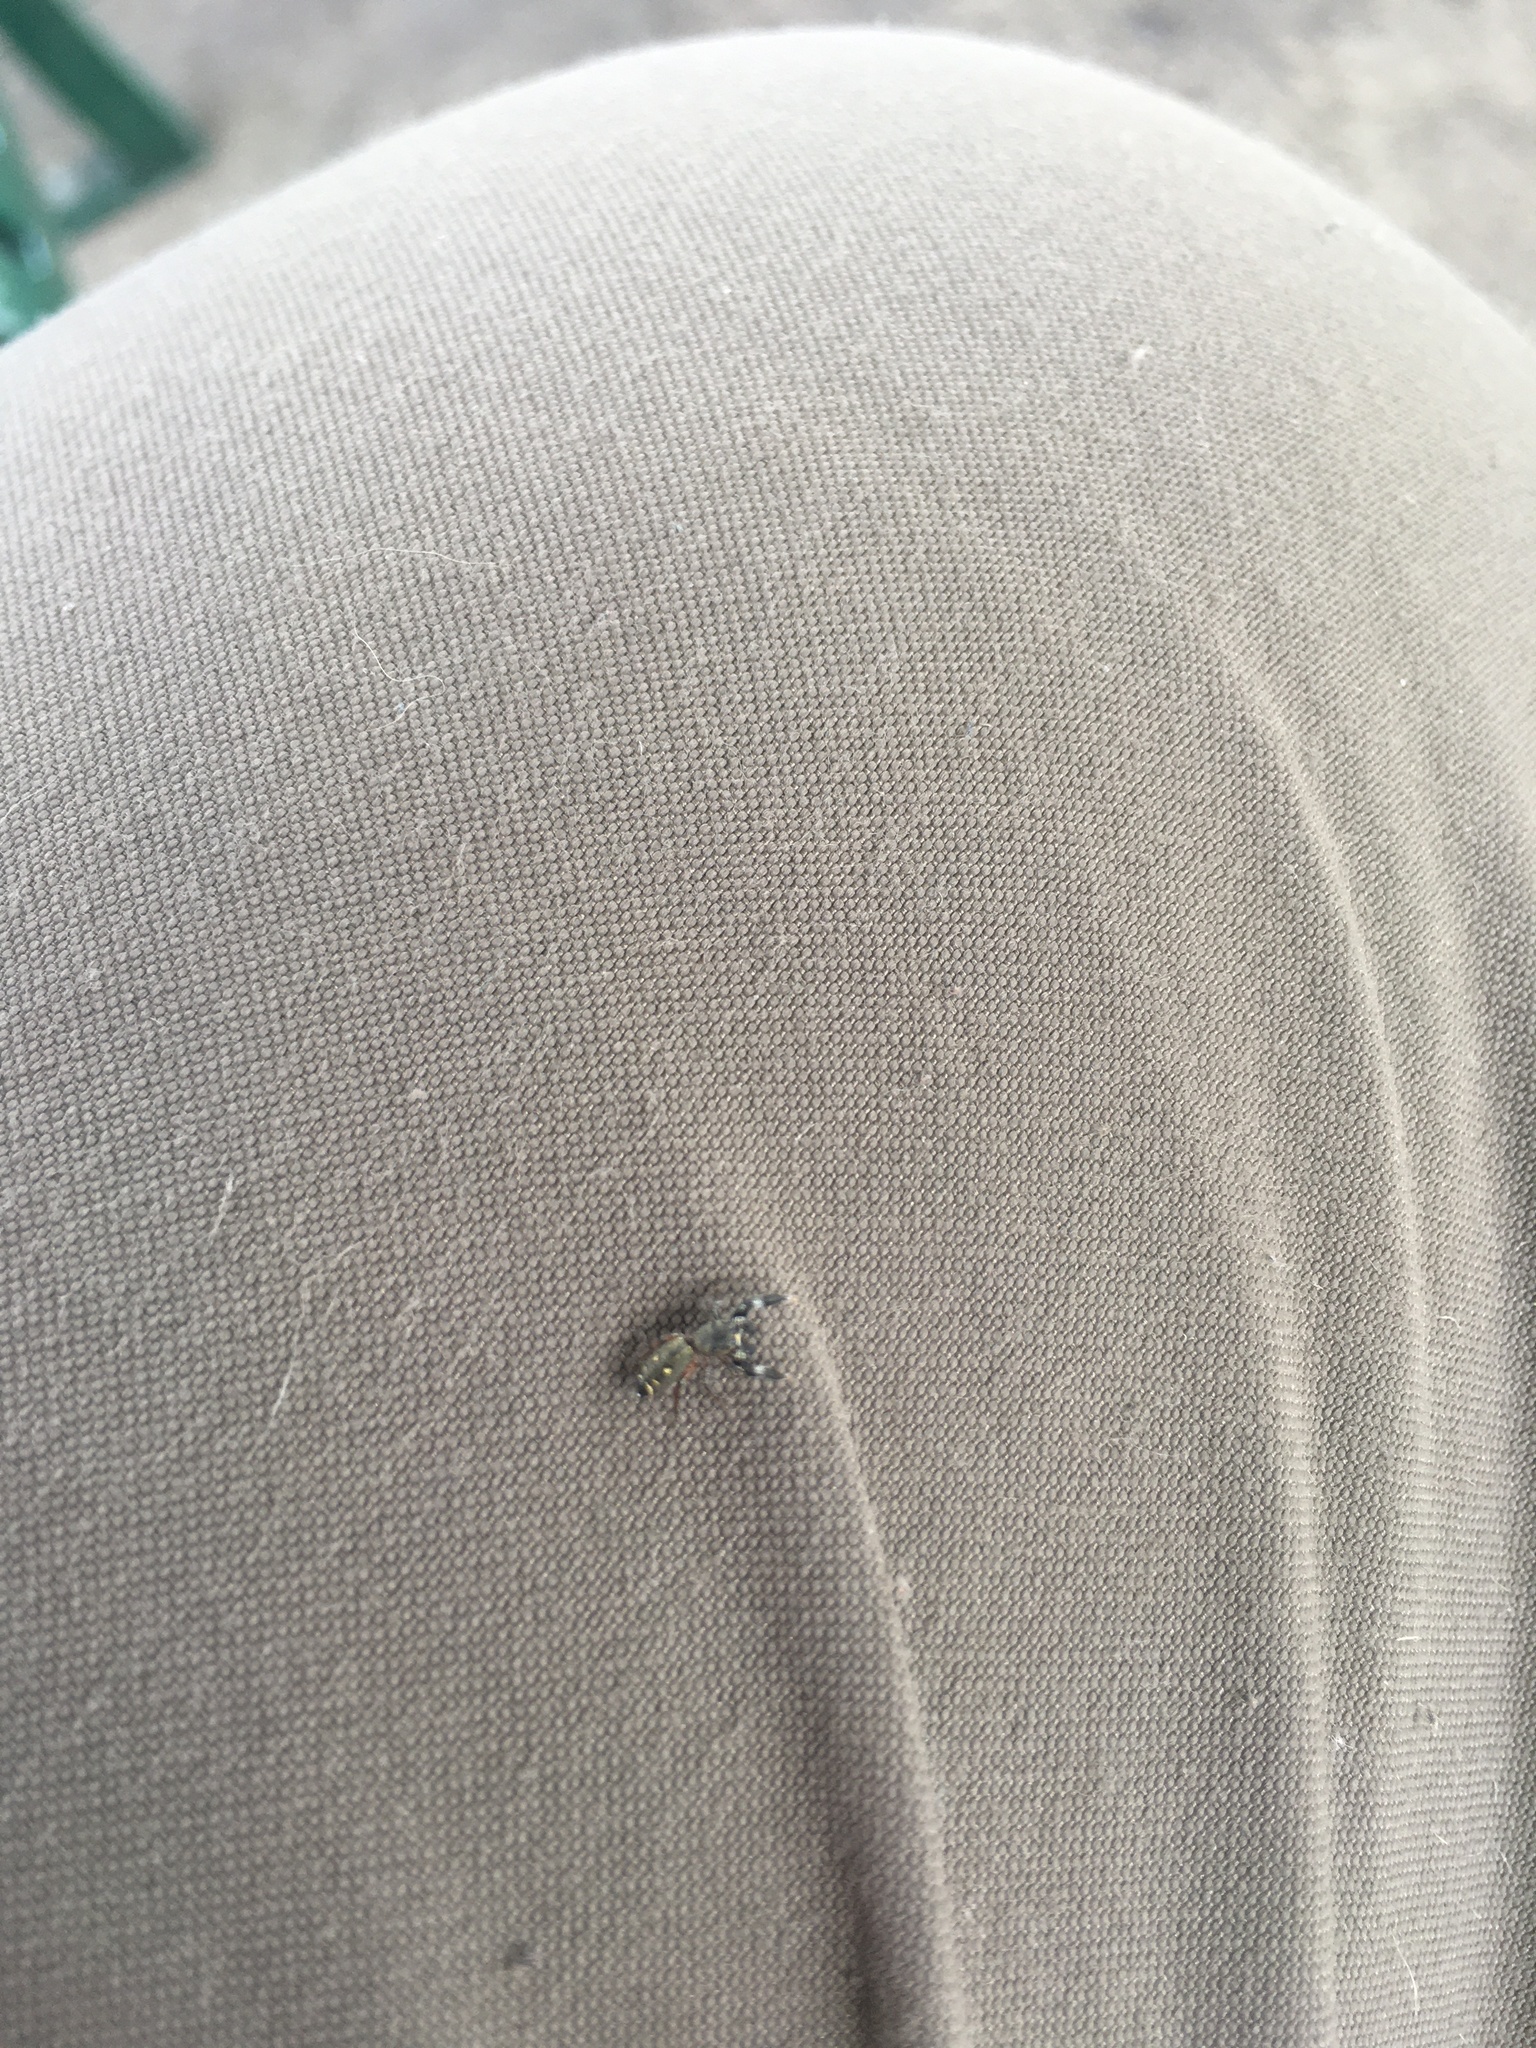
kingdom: Animalia
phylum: Arthropoda
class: Arachnida
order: Araneae
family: Salticidae
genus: Metacyrba
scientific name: Metacyrba punctata
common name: Jumping spiders
